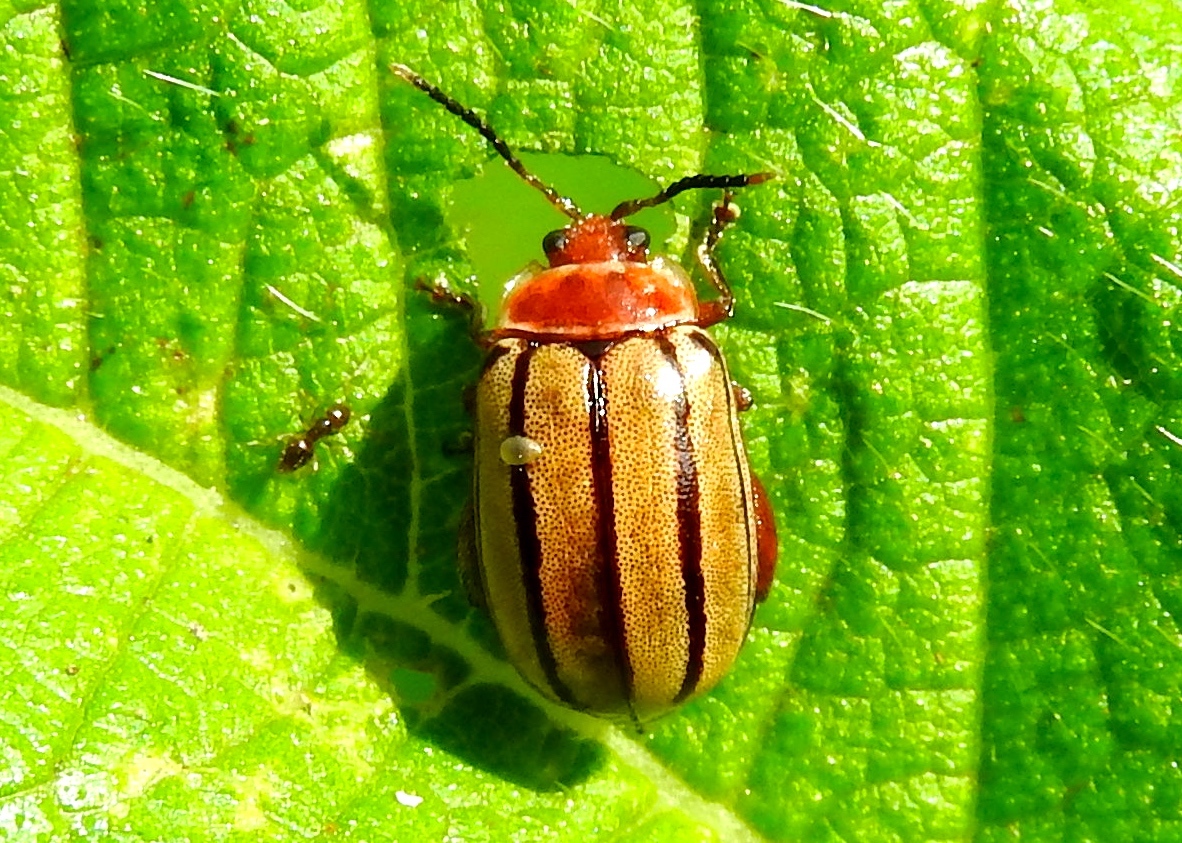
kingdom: Animalia
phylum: Arthropoda
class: Insecta
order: Coleoptera
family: Chrysomelidae
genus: Kuschelina
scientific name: Kuschelina tenuilineata
